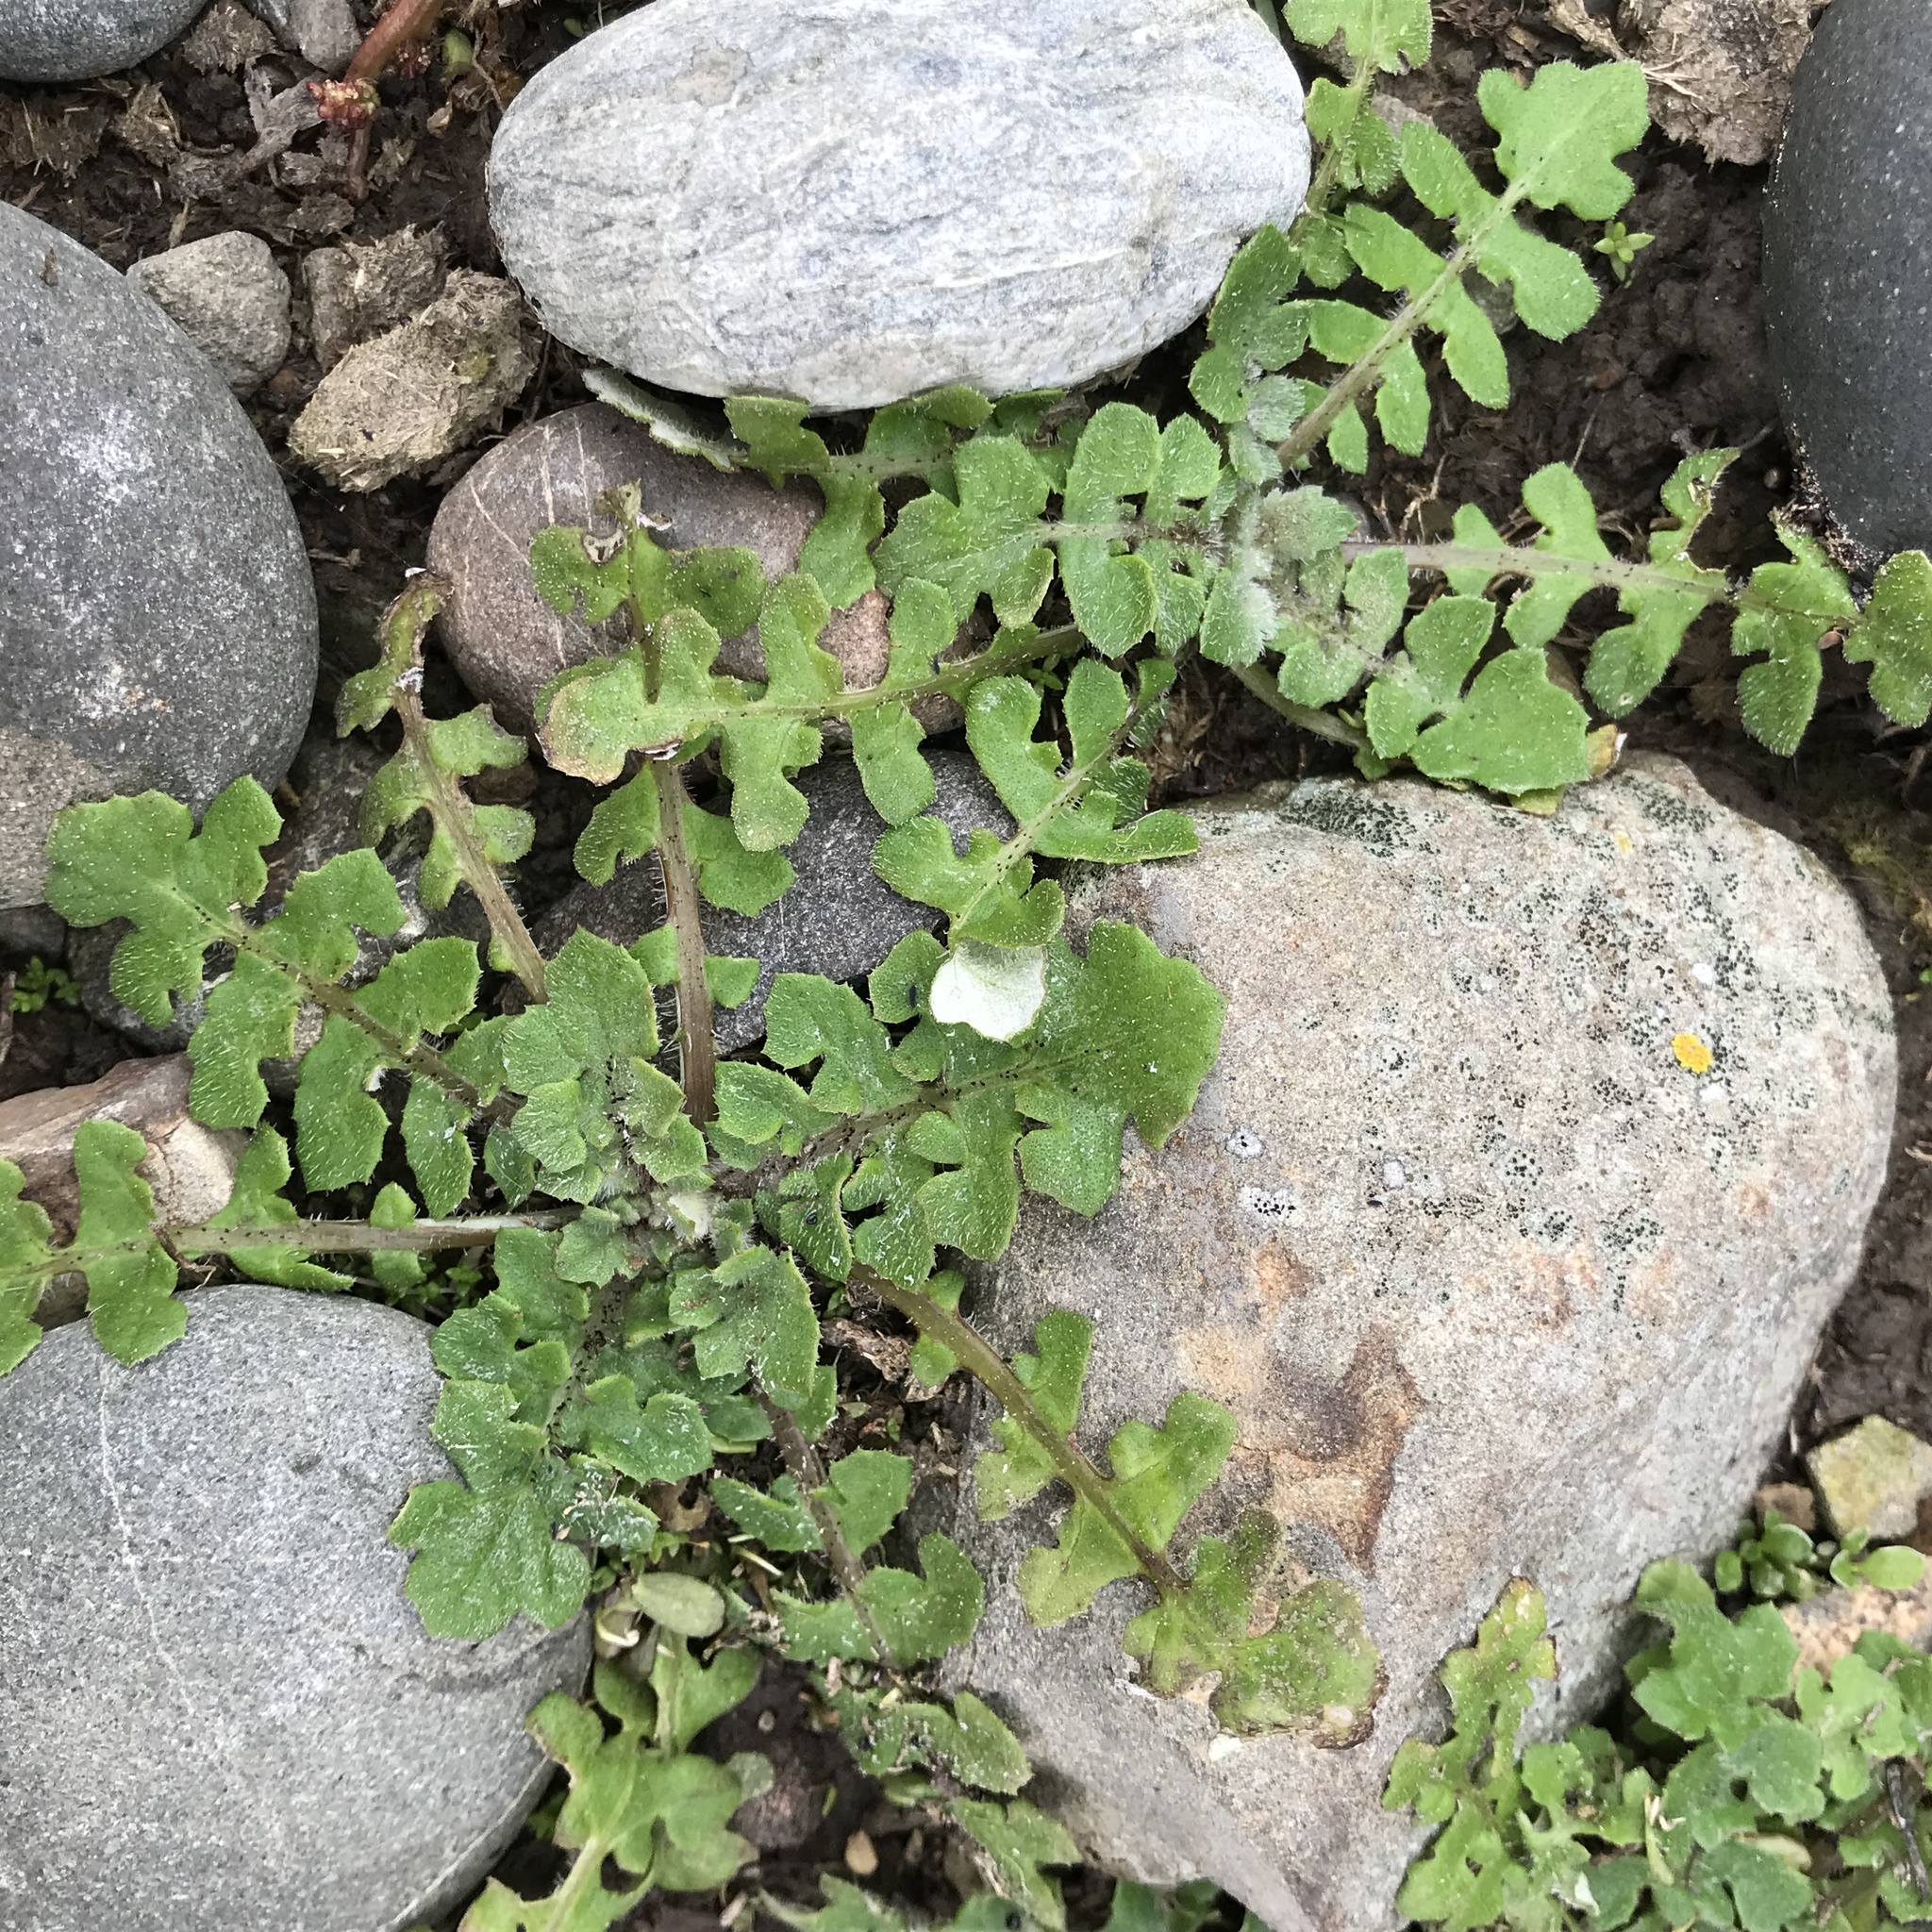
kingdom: Plantae
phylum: Tracheophyta
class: Magnoliopsida
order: Asterales
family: Asteraceae
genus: Arctotheca
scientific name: Arctotheca calendula
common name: Capeweed
